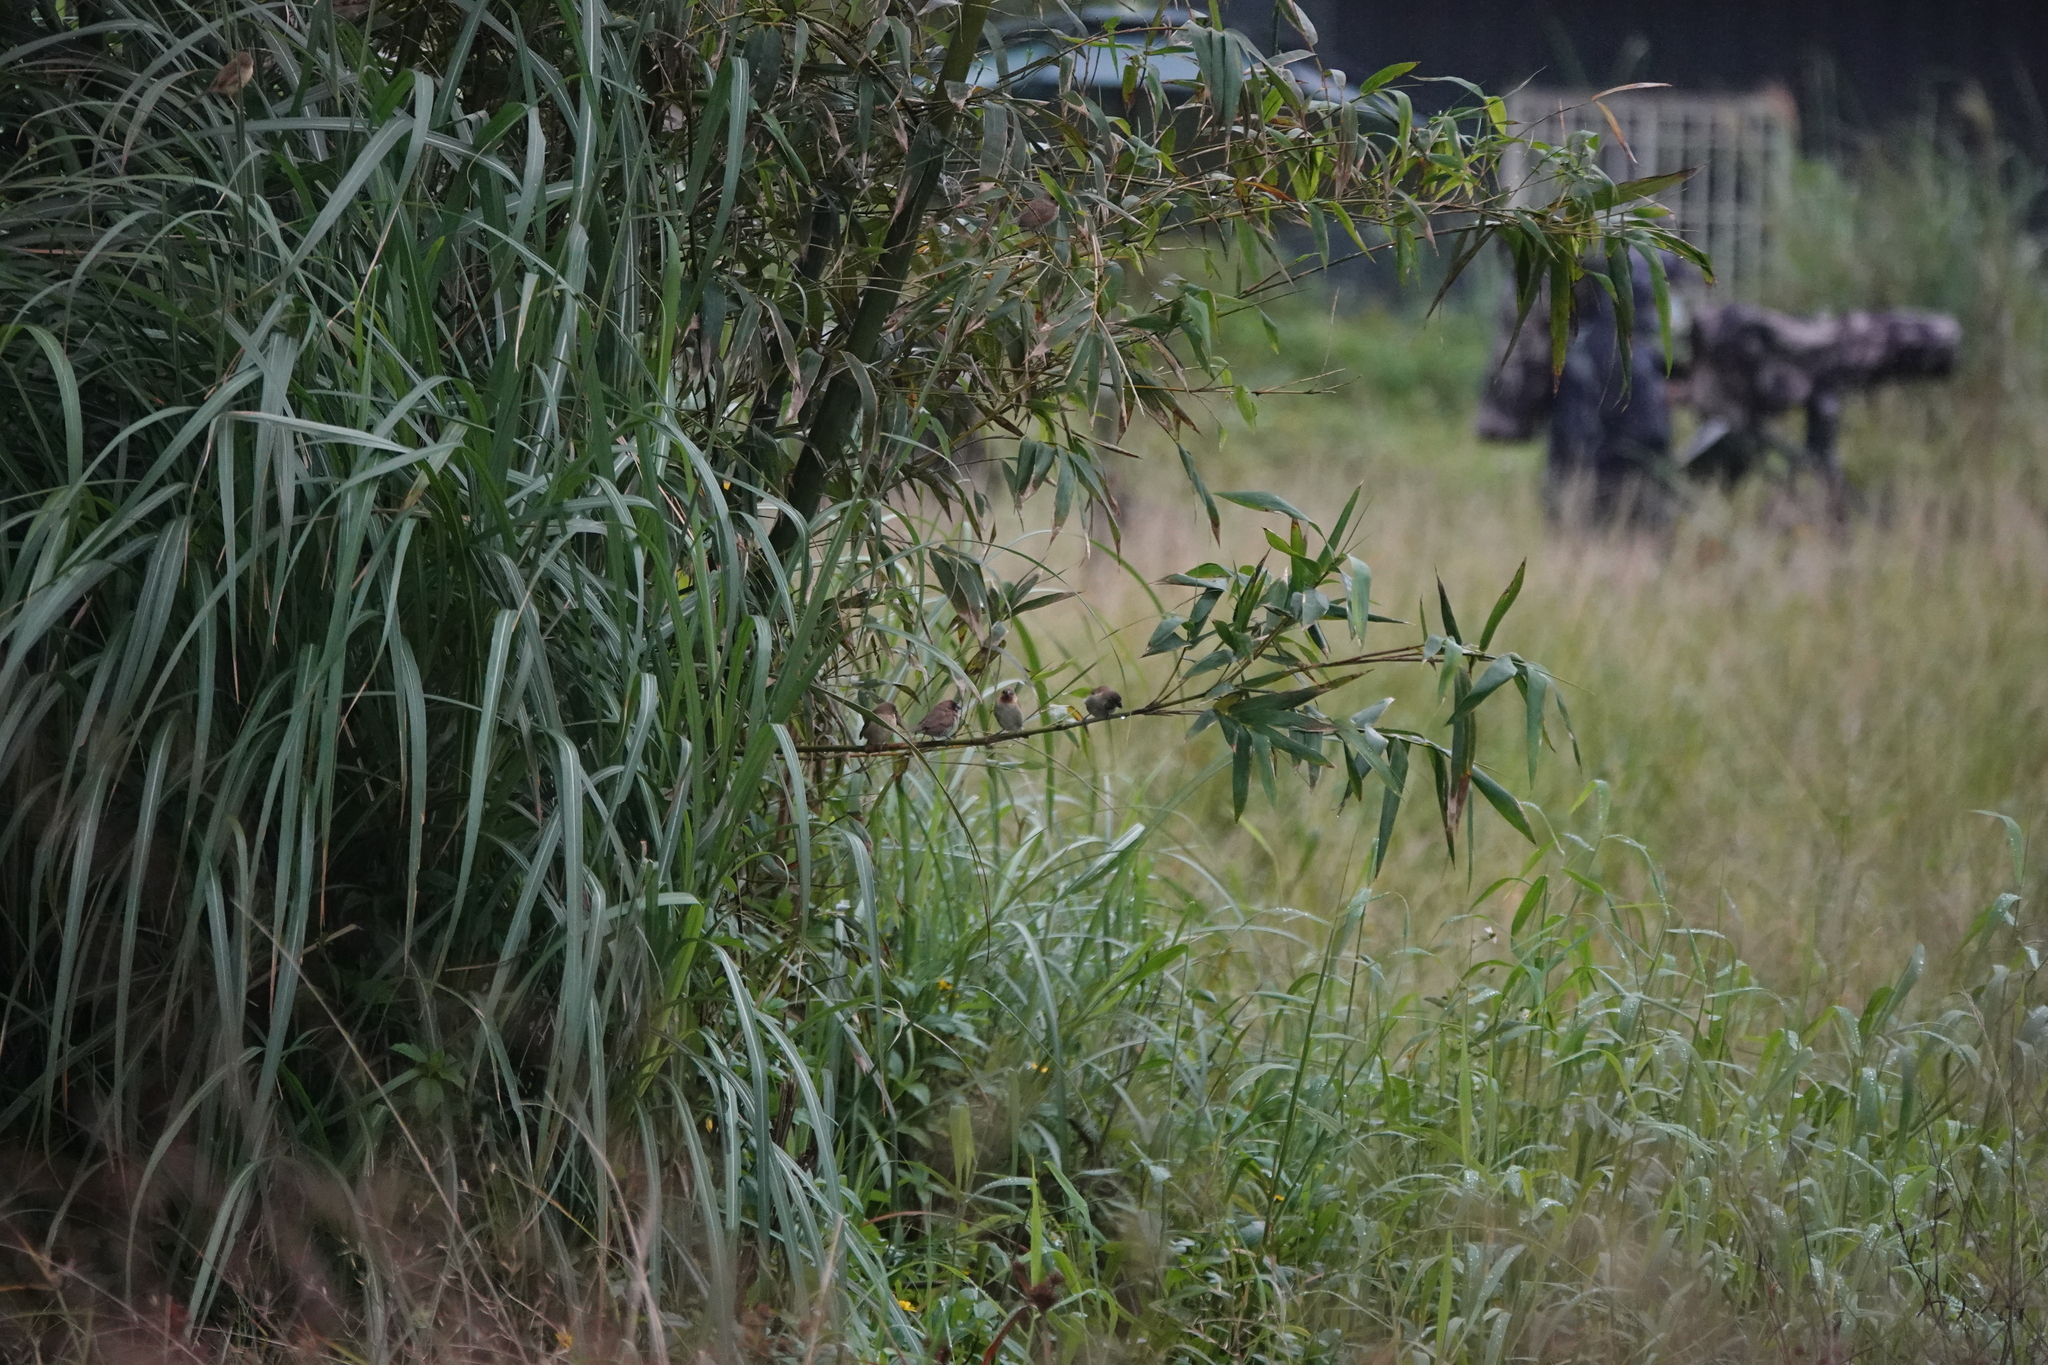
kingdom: Animalia
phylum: Chordata
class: Aves
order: Passeriformes
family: Estrildidae
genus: Lonchura
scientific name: Lonchura punctulata
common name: Scaly-breasted munia
